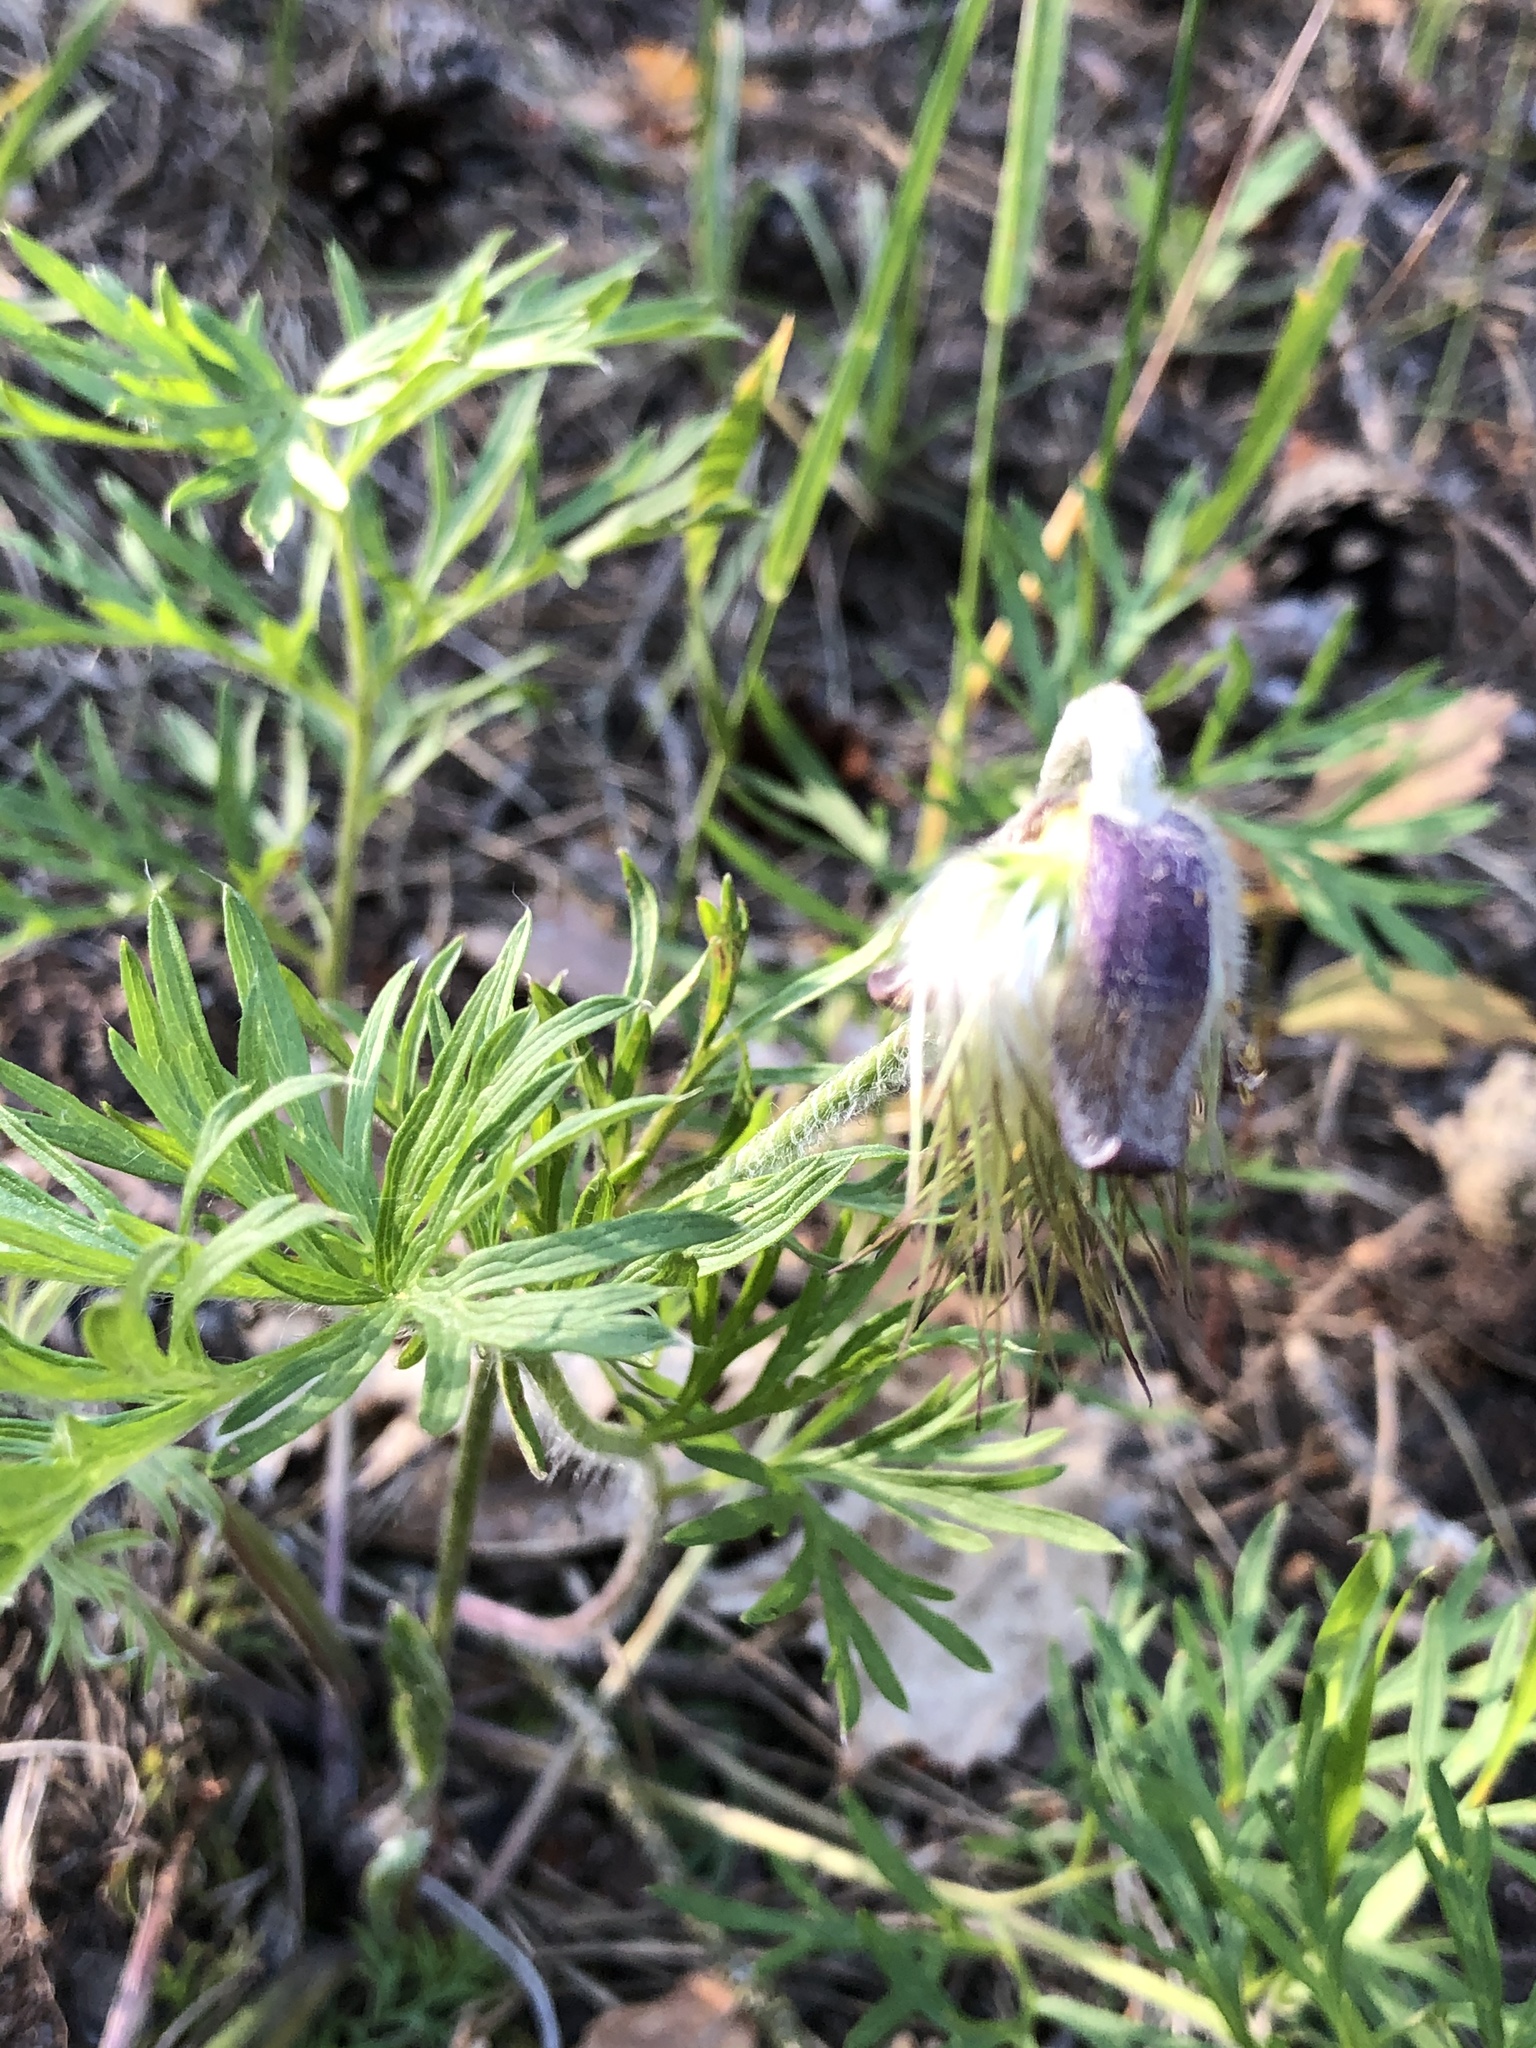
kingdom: Plantae
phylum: Tracheophyta
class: Magnoliopsida
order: Ranunculales
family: Ranunculaceae
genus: Pulsatilla
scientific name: Pulsatilla pratensis
